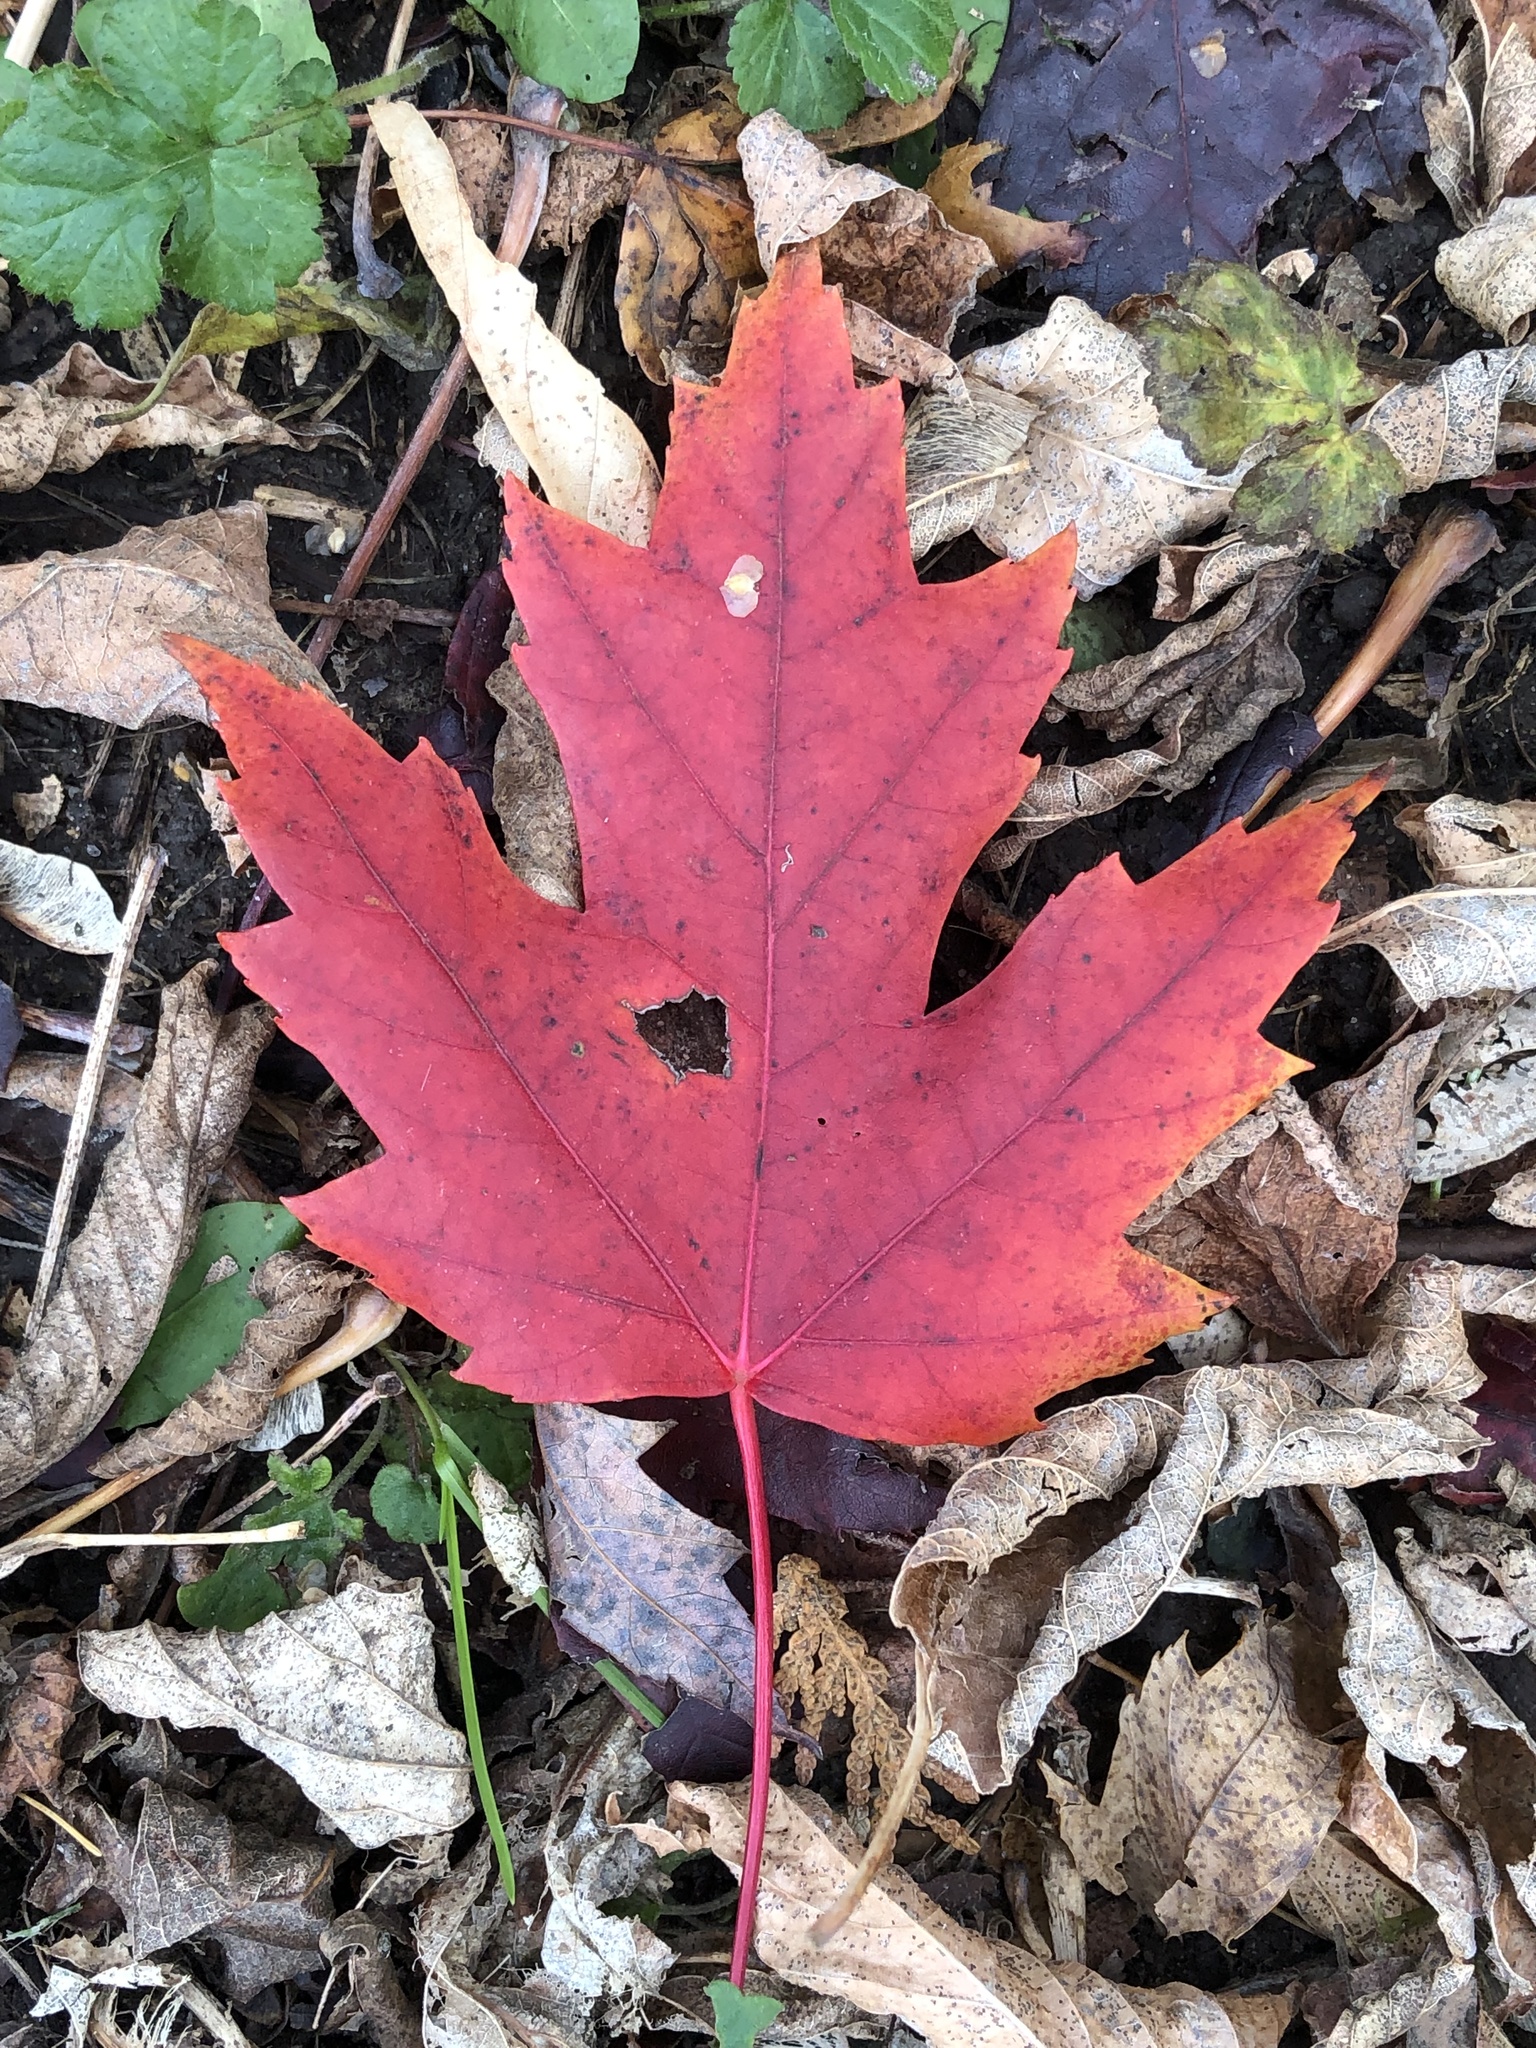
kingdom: Plantae
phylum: Tracheophyta
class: Magnoliopsida
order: Sapindales
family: Sapindaceae
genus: Acer
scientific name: Acer freemanii
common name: Freeman maple
